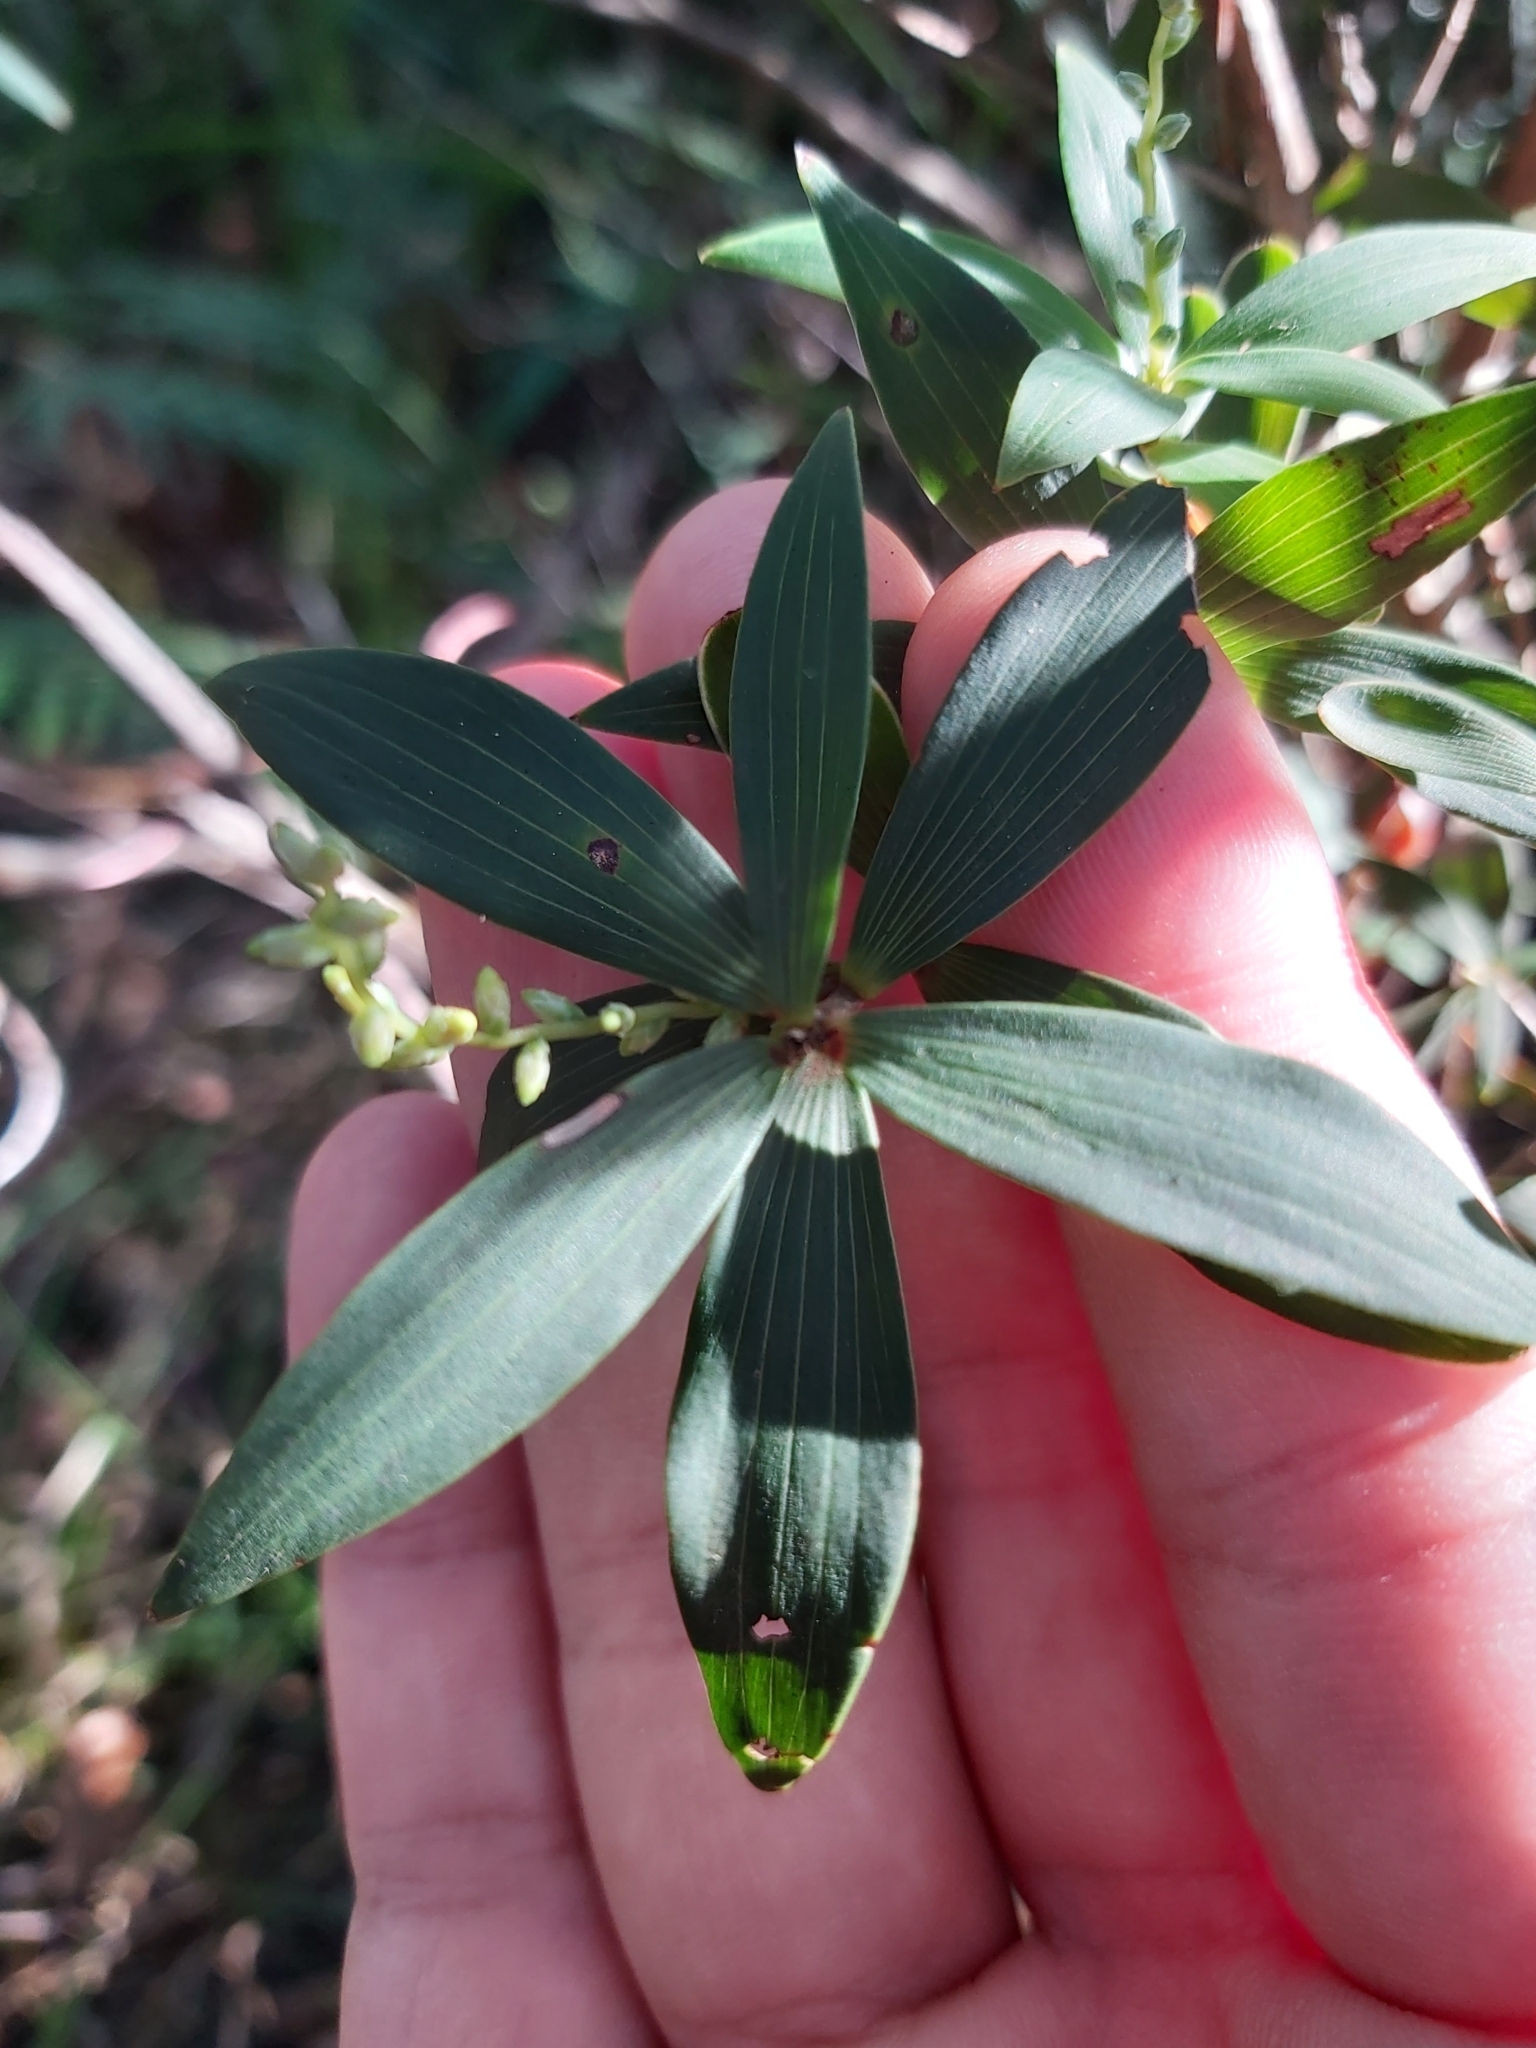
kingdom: Plantae
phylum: Tracheophyta
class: Magnoliopsida
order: Ericales
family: Ericaceae
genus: Leucopogon
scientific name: Leucopogon lanceolatus
